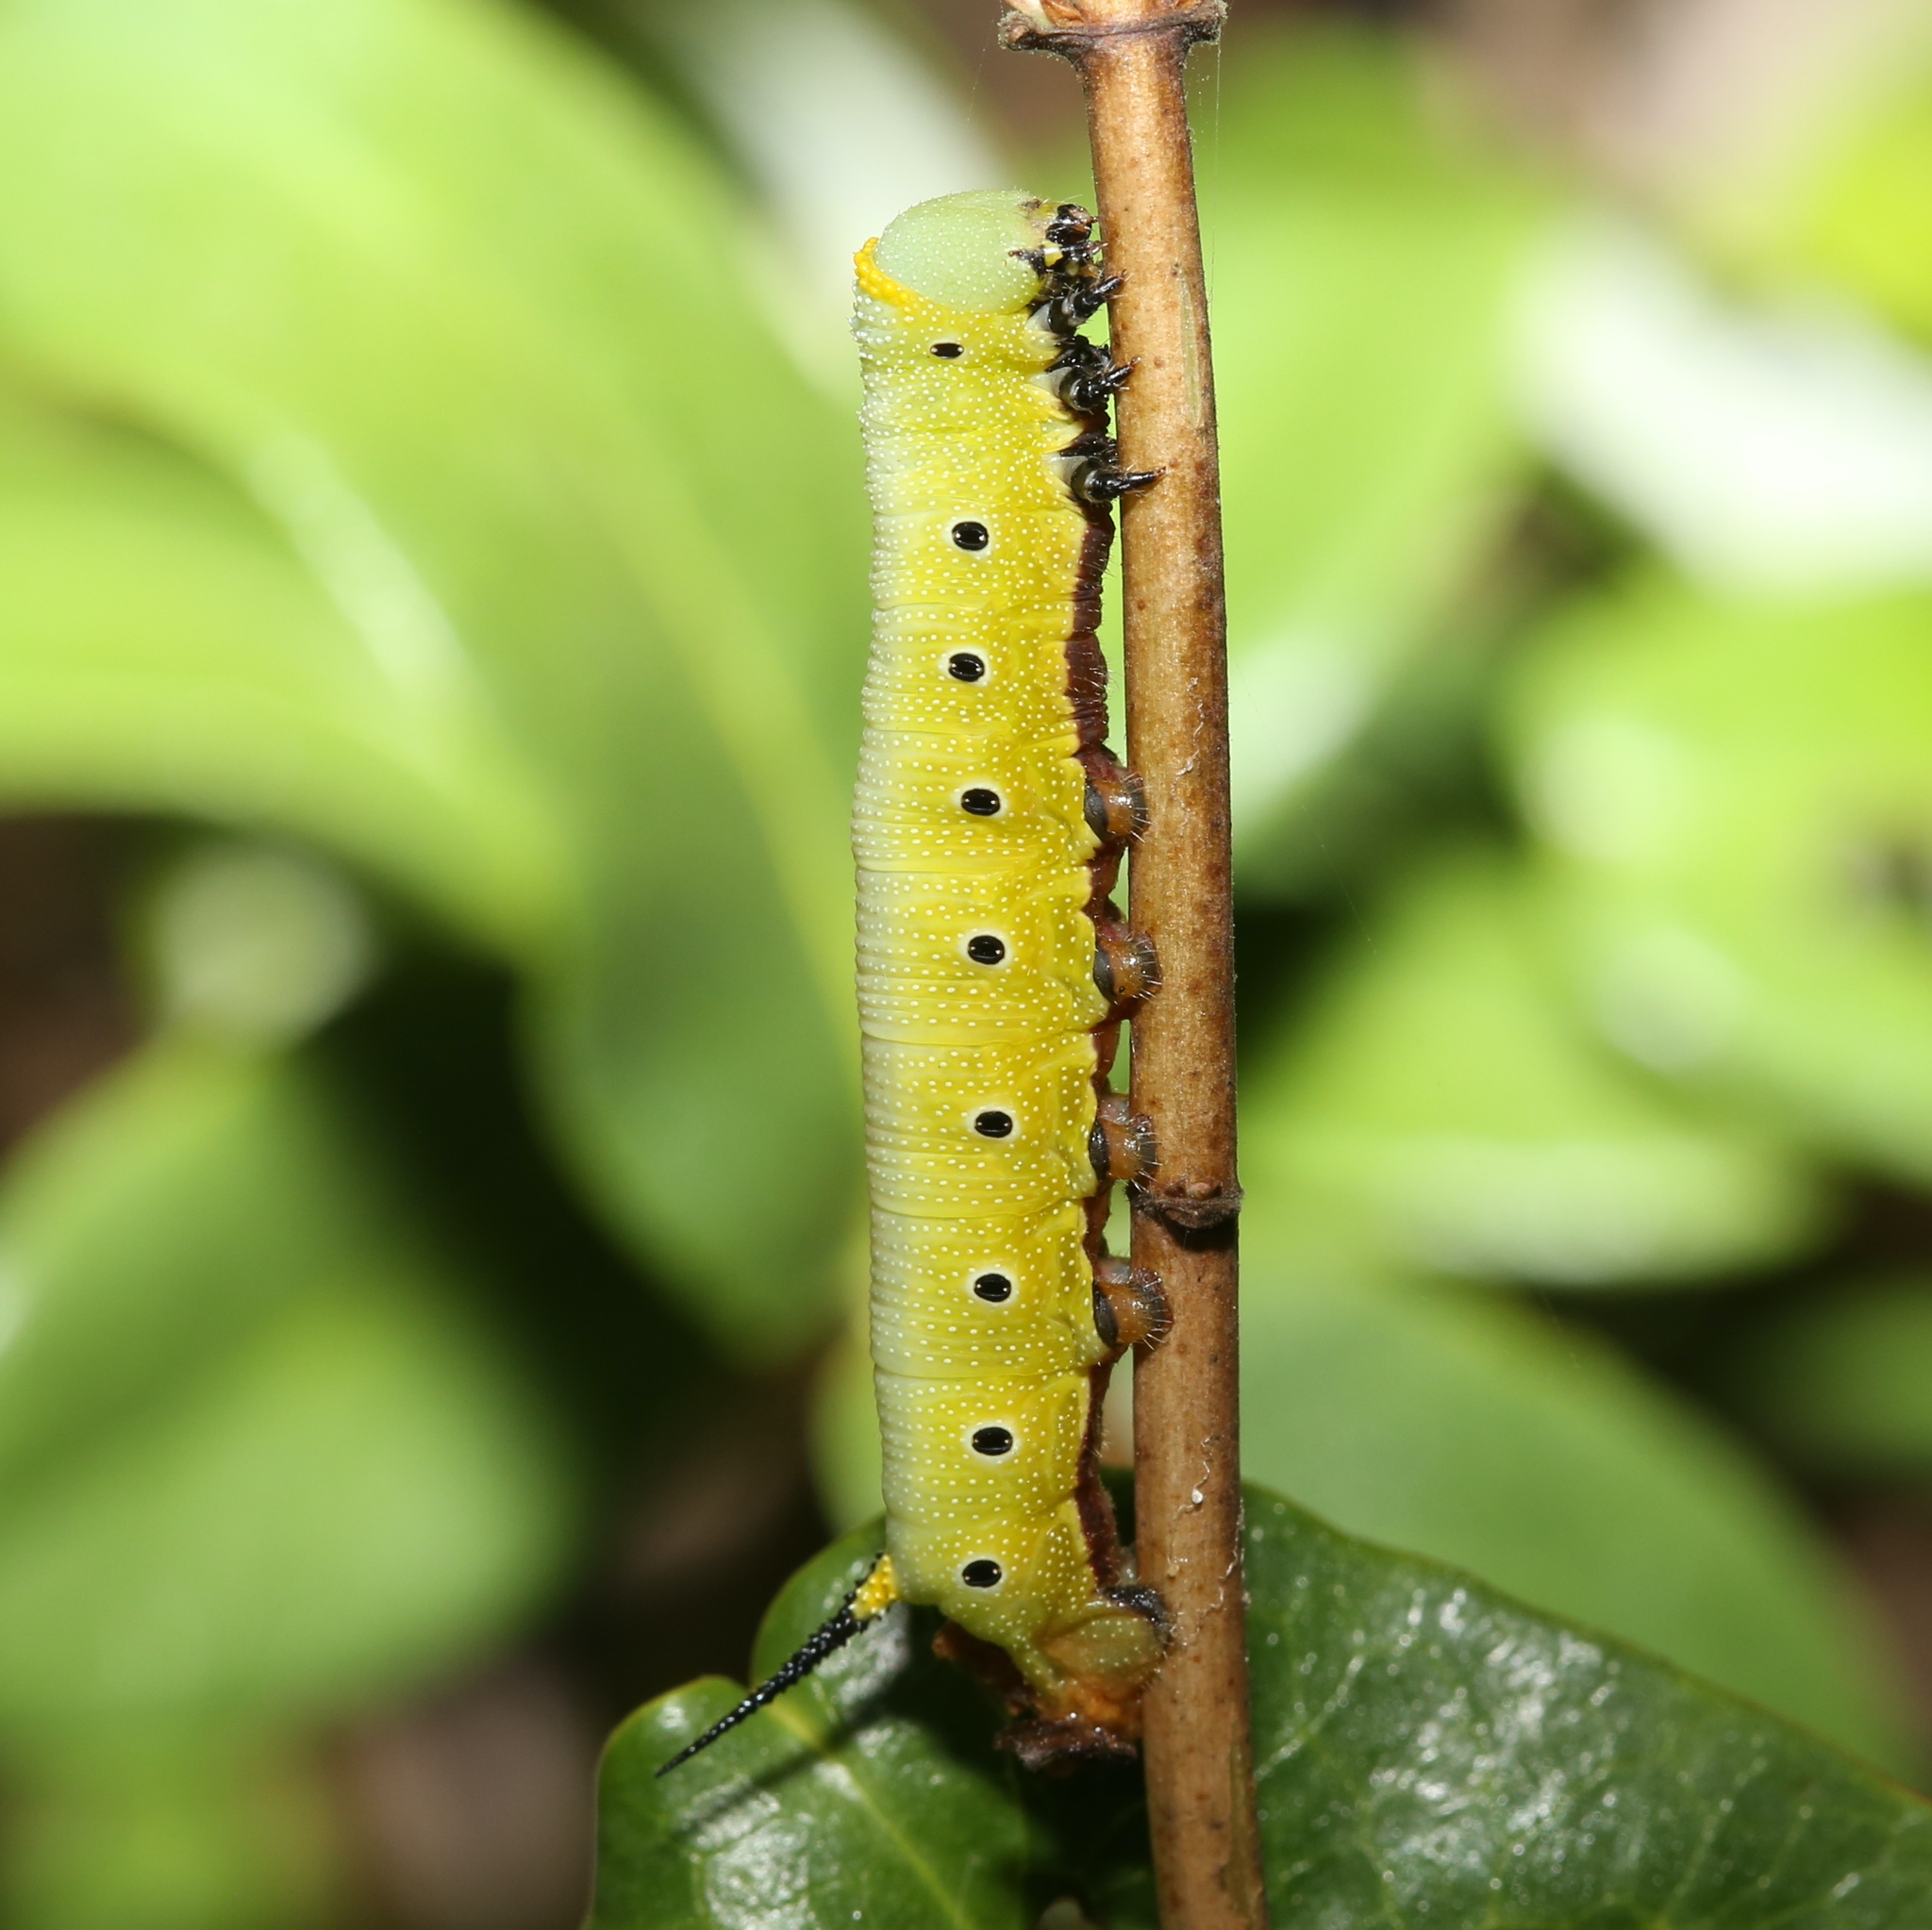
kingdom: Animalia
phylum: Arthropoda
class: Insecta
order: Lepidoptera
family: Sphingidae
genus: Hemaris
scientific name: Hemaris diffinis
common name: Bumblebee moth
